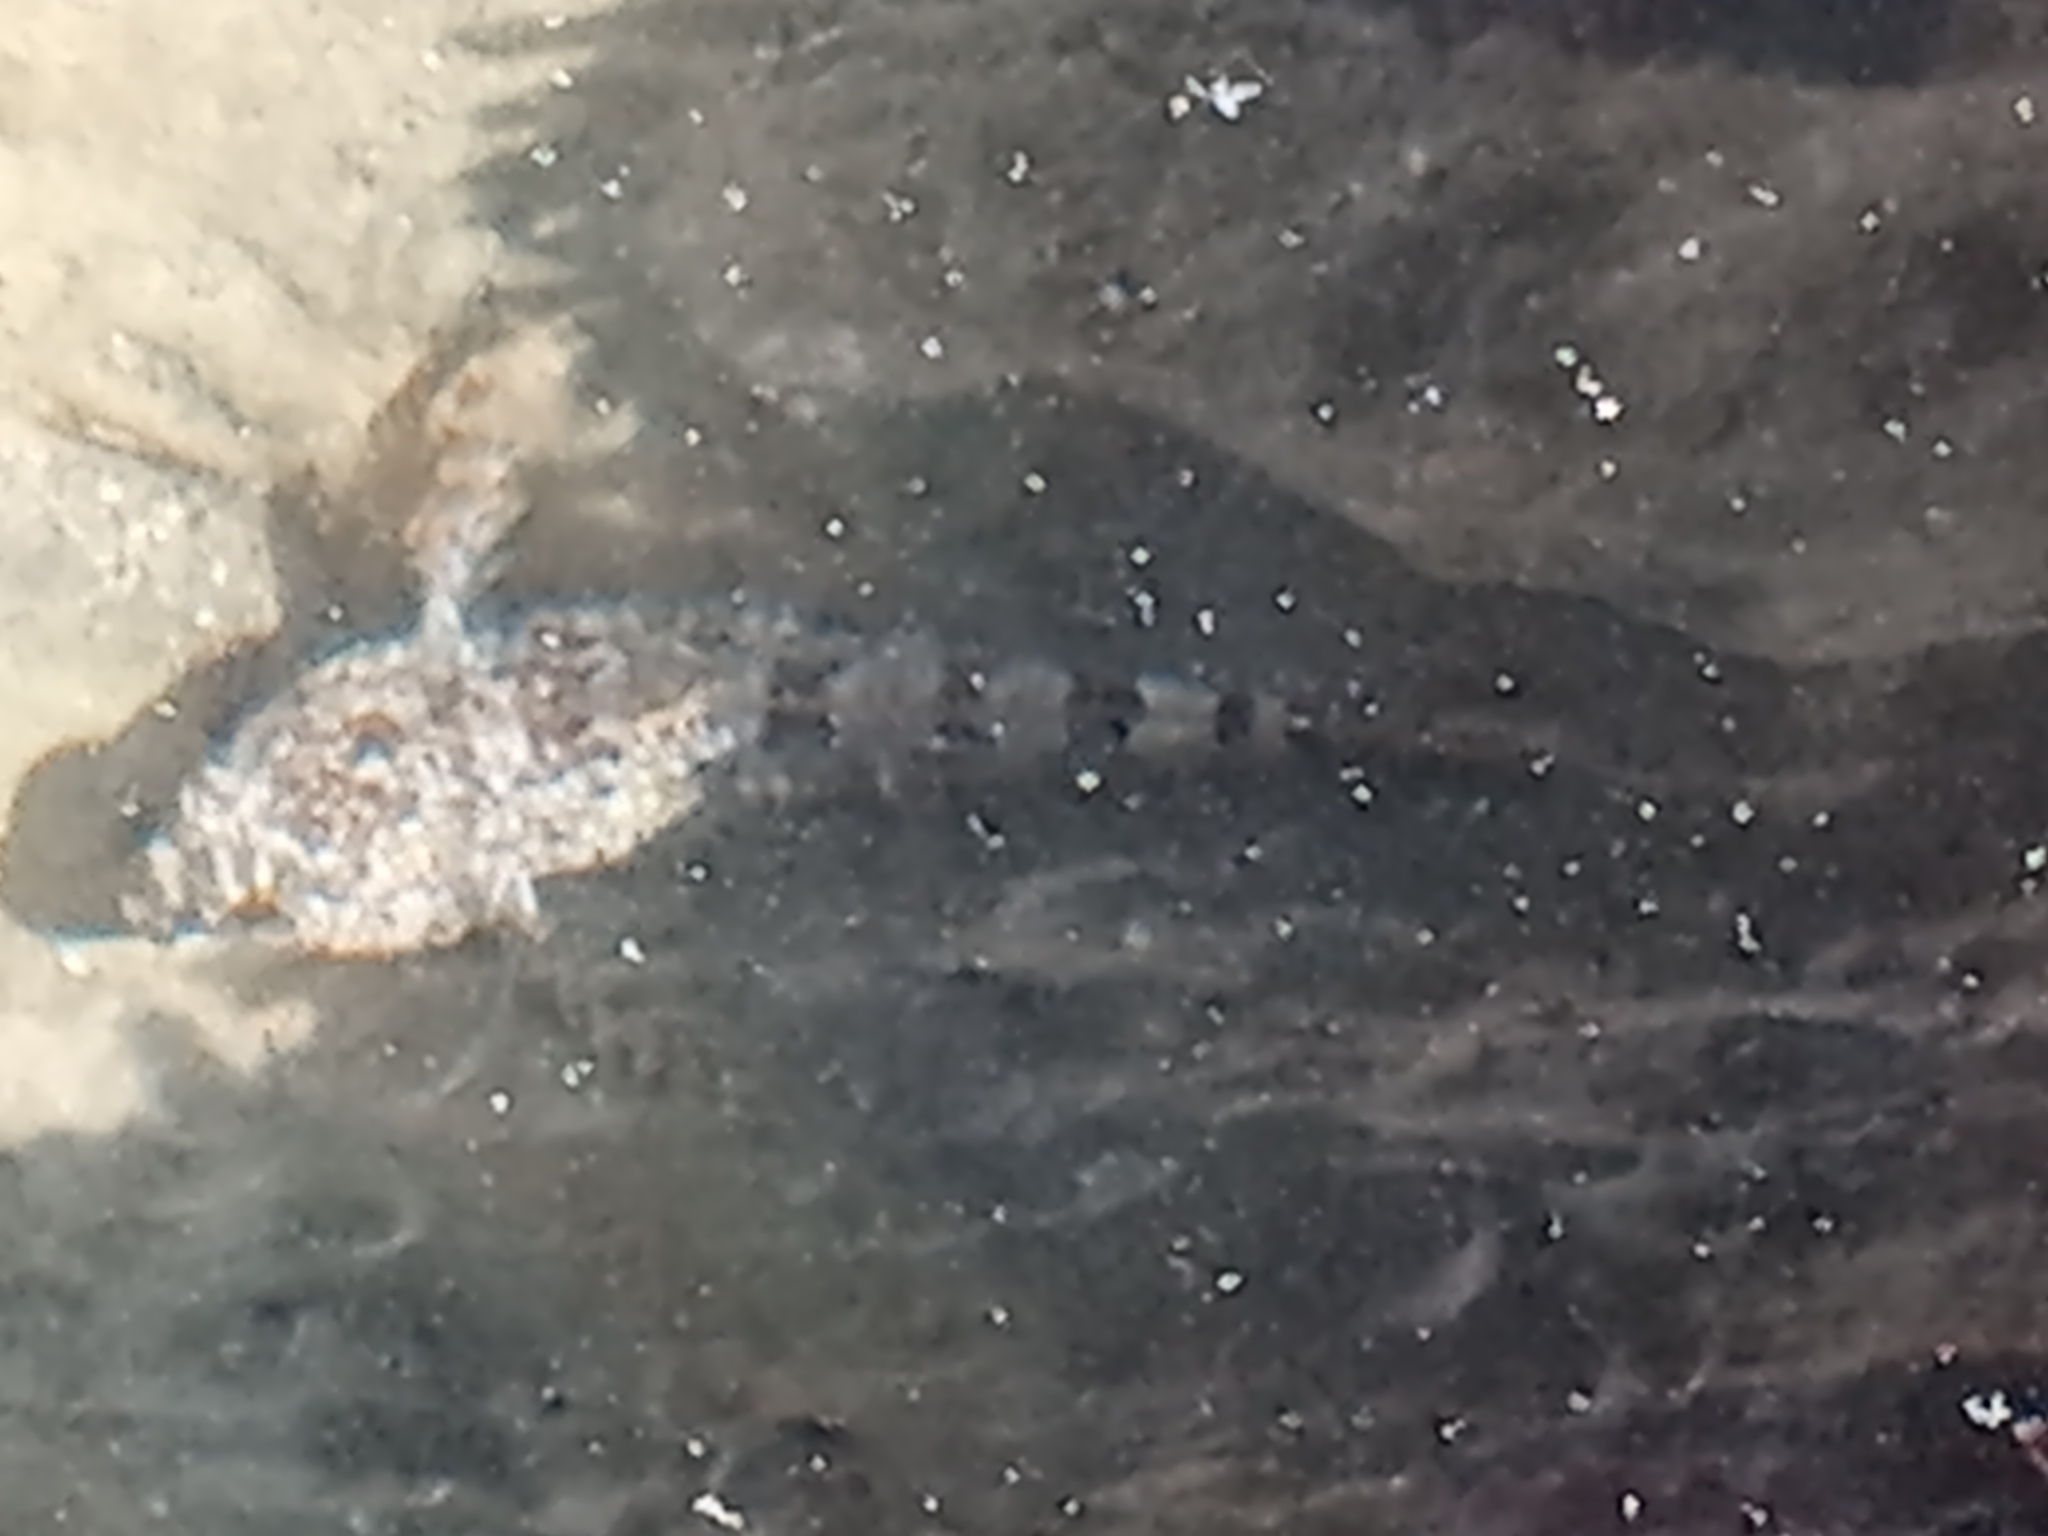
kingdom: Animalia
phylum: Chordata
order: Scorpaeniformes
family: Cottidae
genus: Clinocottus
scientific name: Clinocottus analis
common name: Woolly sculpin
